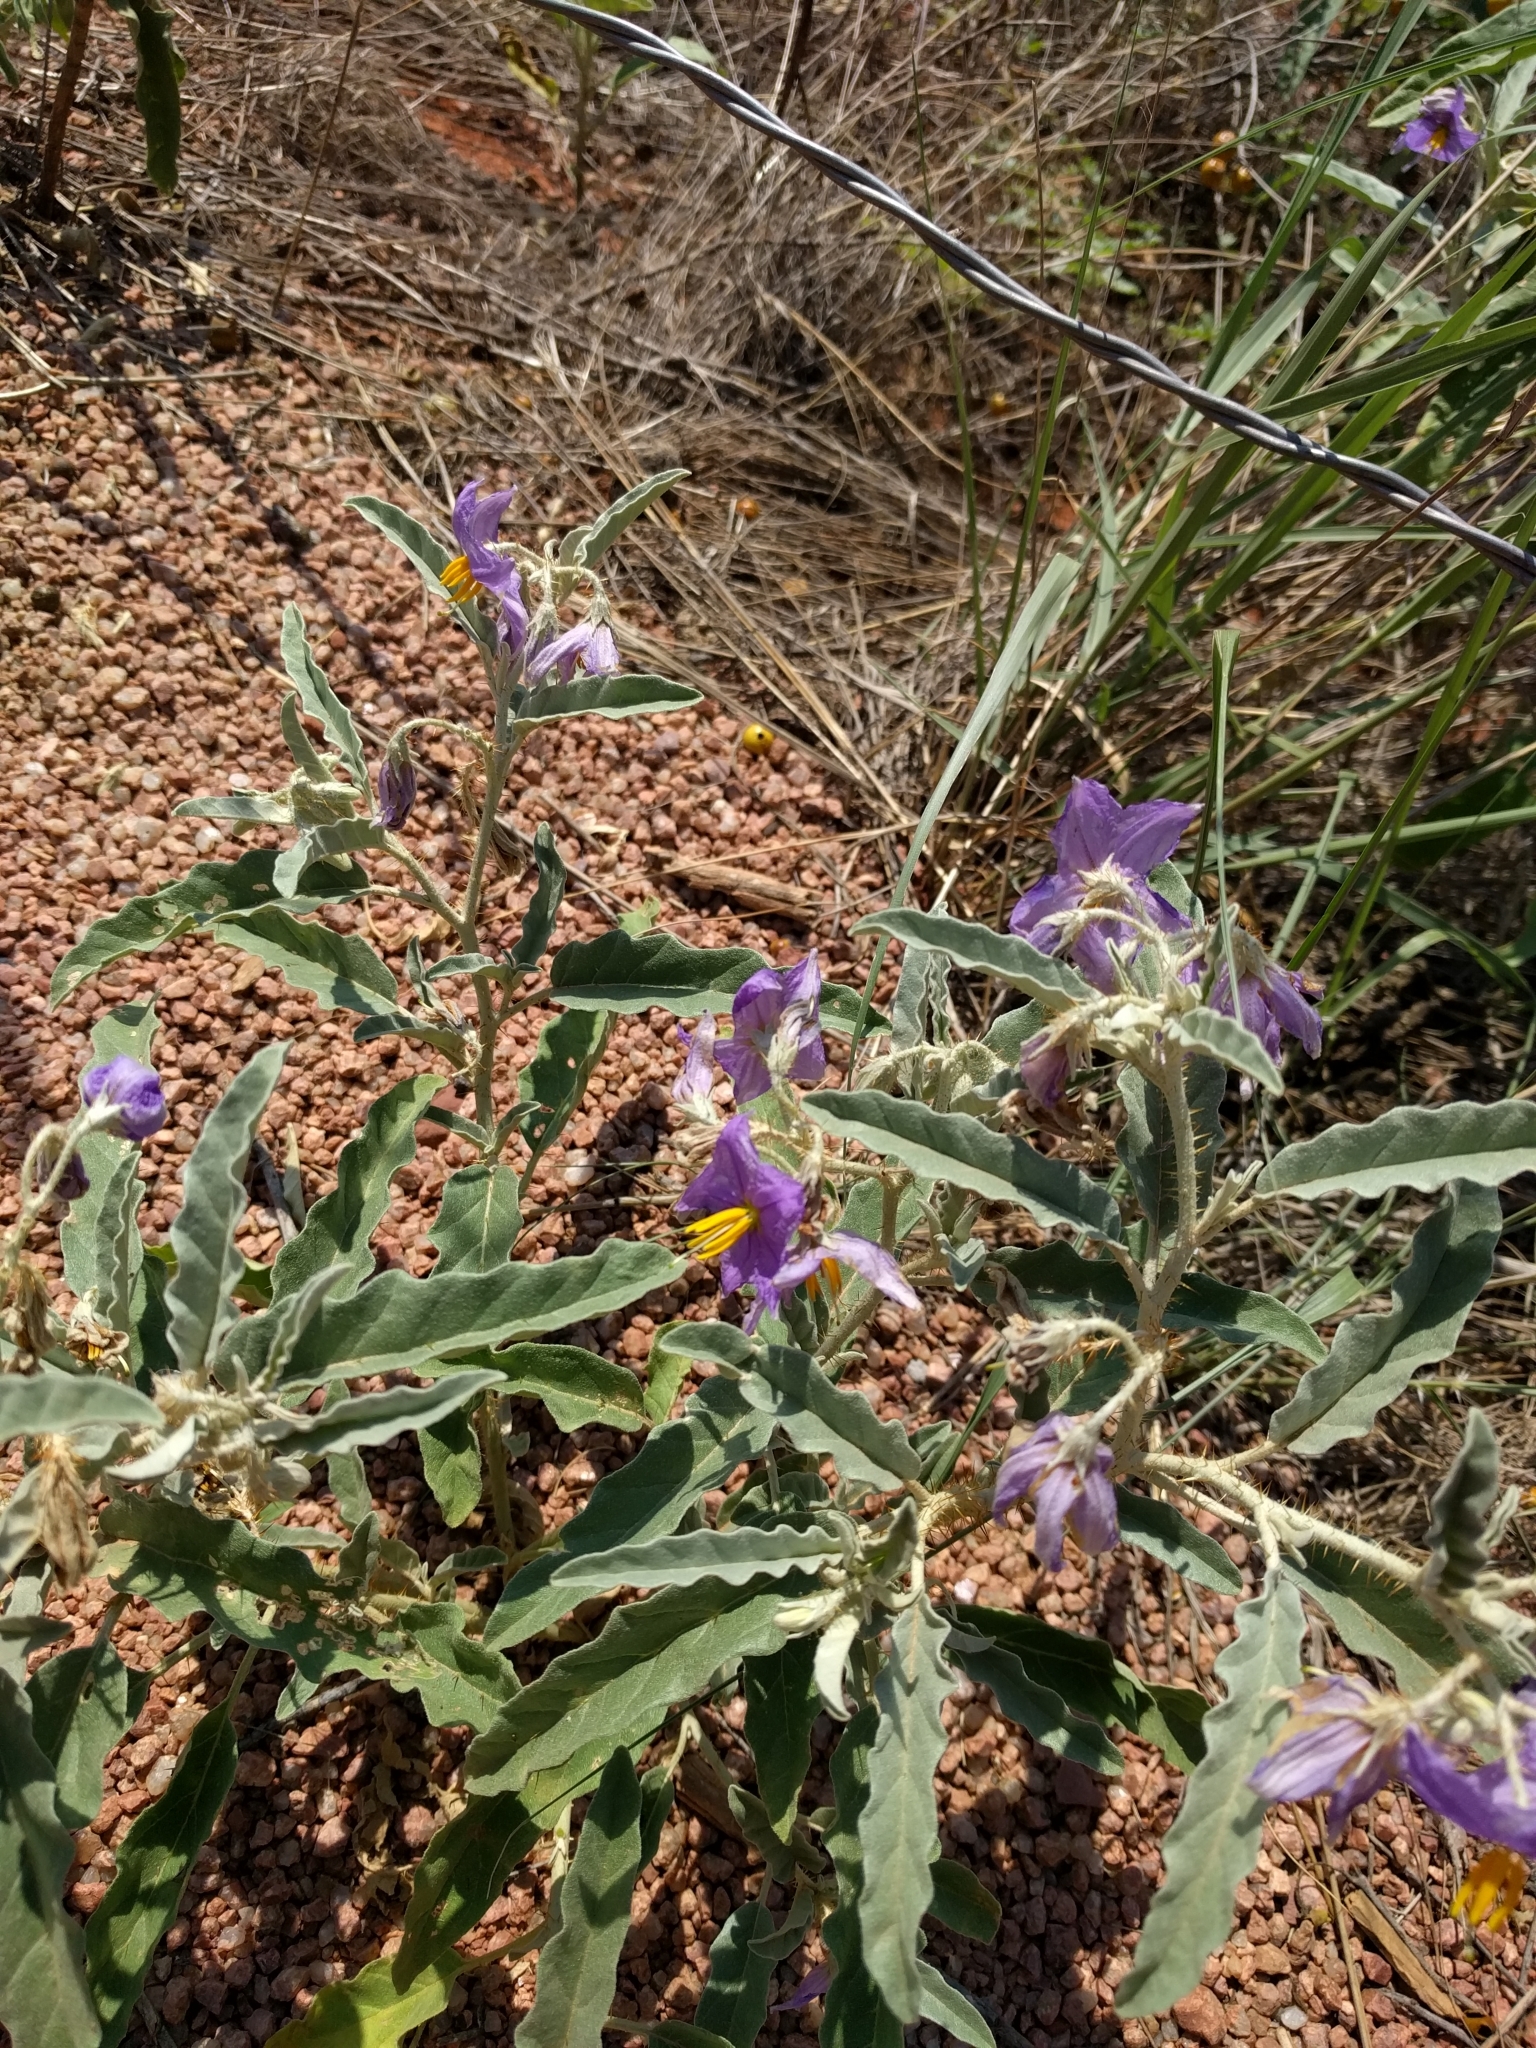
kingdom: Plantae
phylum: Tracheophyta
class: Magnoliopsida
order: Solanales
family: Solanaceae
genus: Solanum
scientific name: Solanum elaeagnifolium
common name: Silverleaf nightshade
